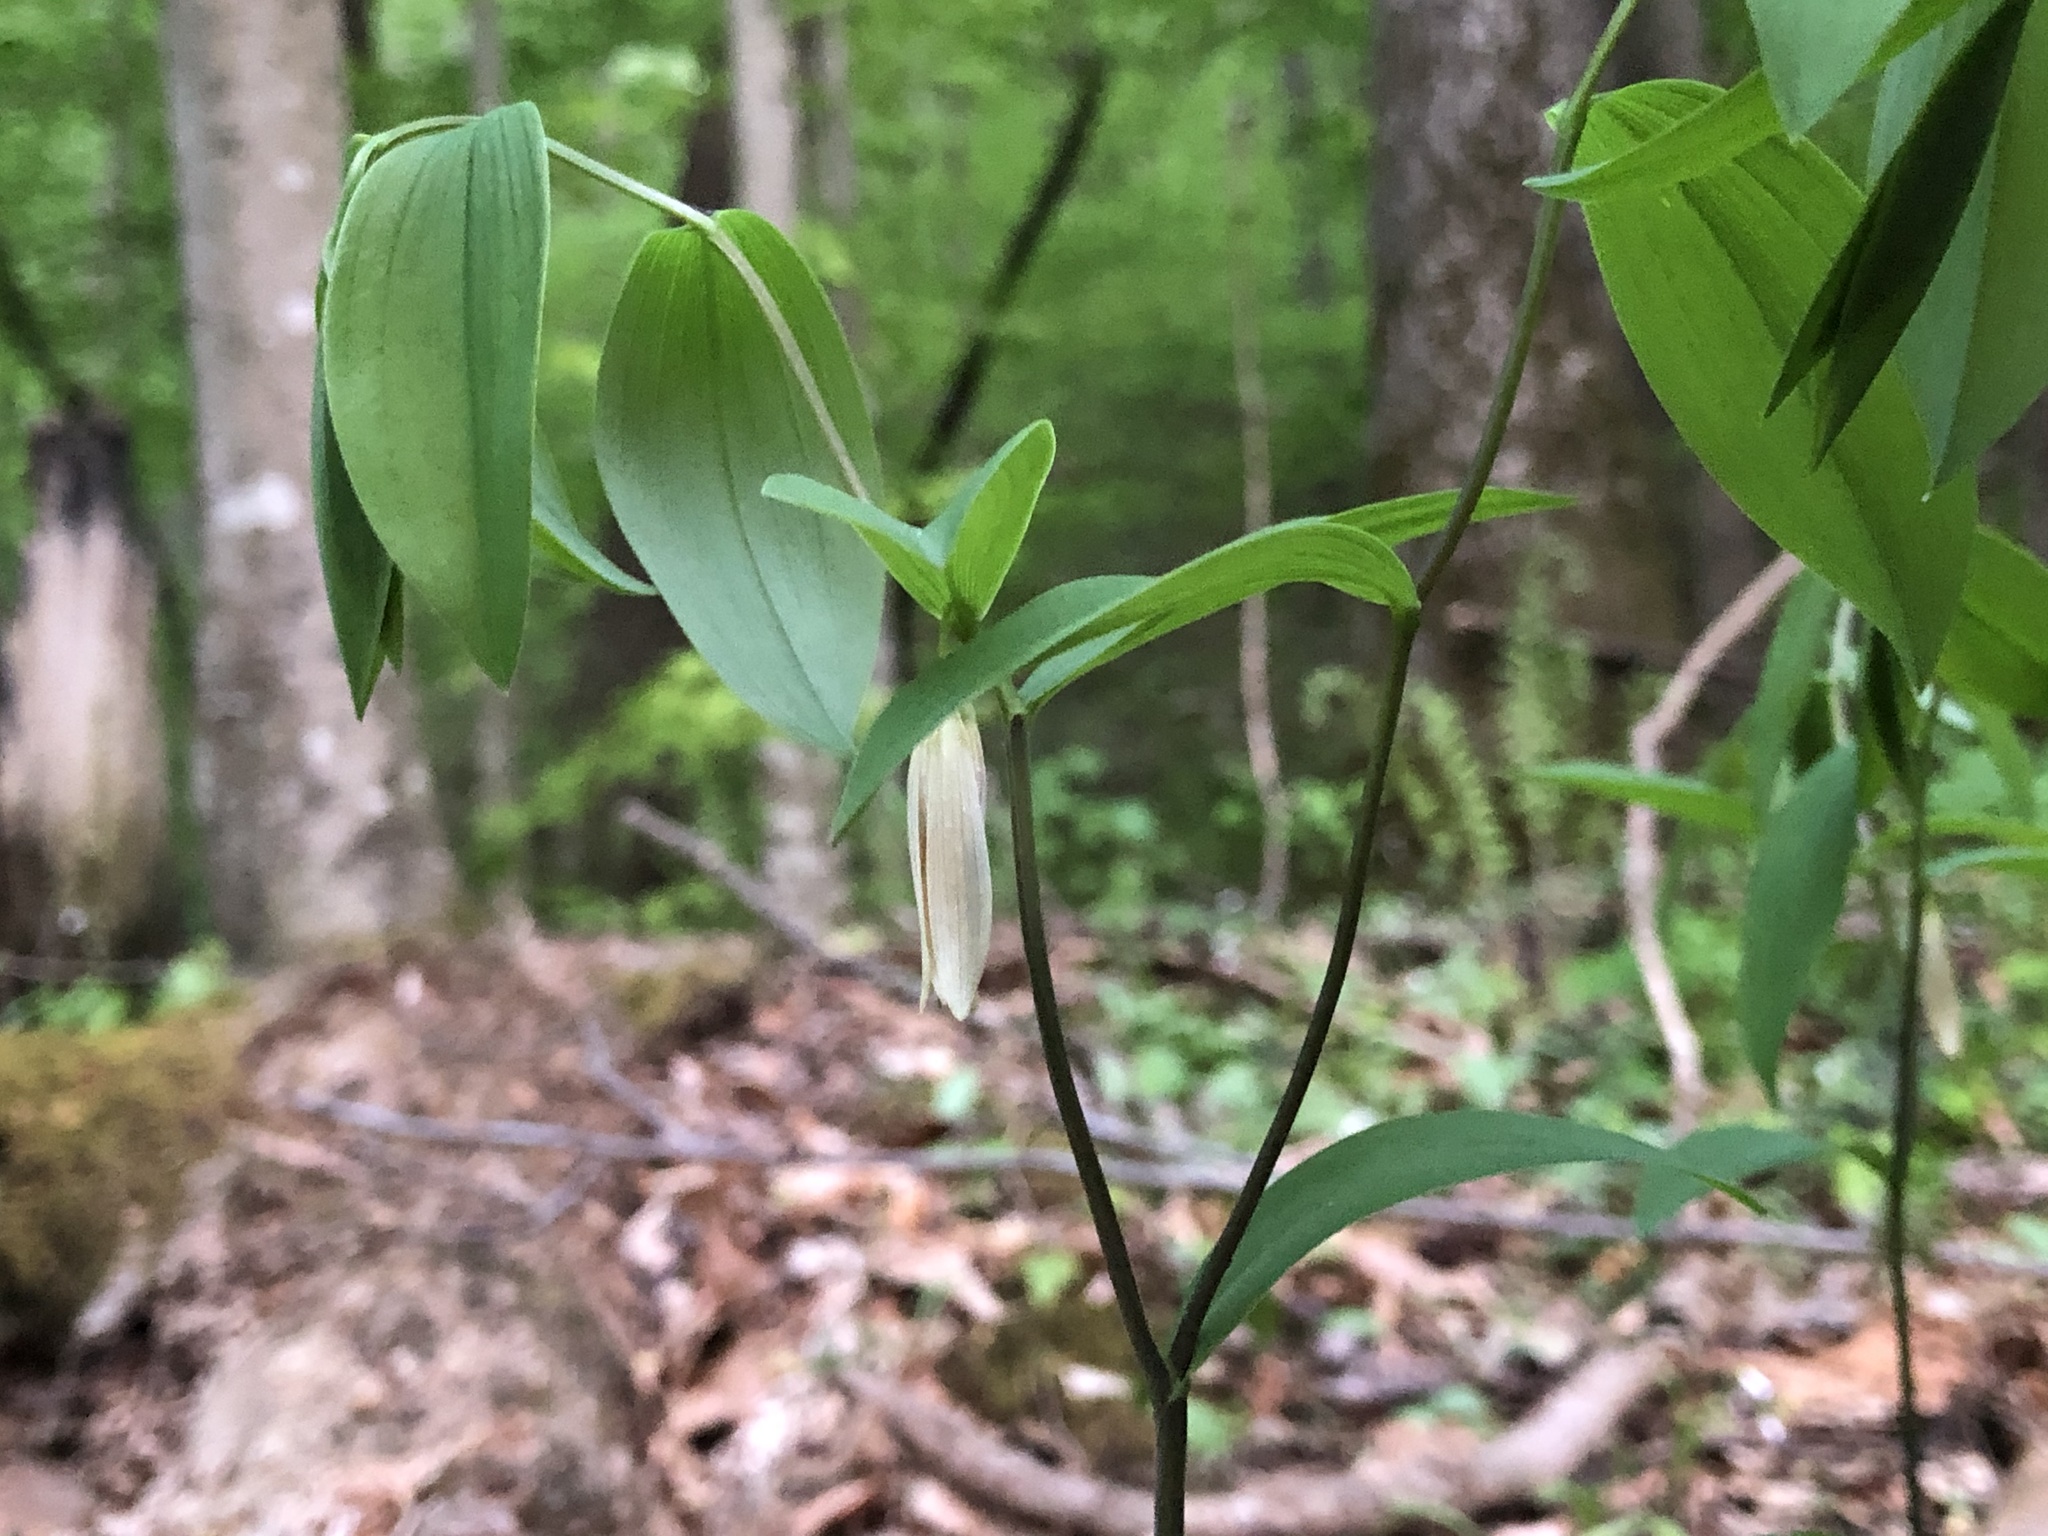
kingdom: Plantae
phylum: Tracheophyta
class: Liliopsida
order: Liliales
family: Colchicaceae
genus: Uvularia
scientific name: Uvularia sessilifolia
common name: Straw-lily
